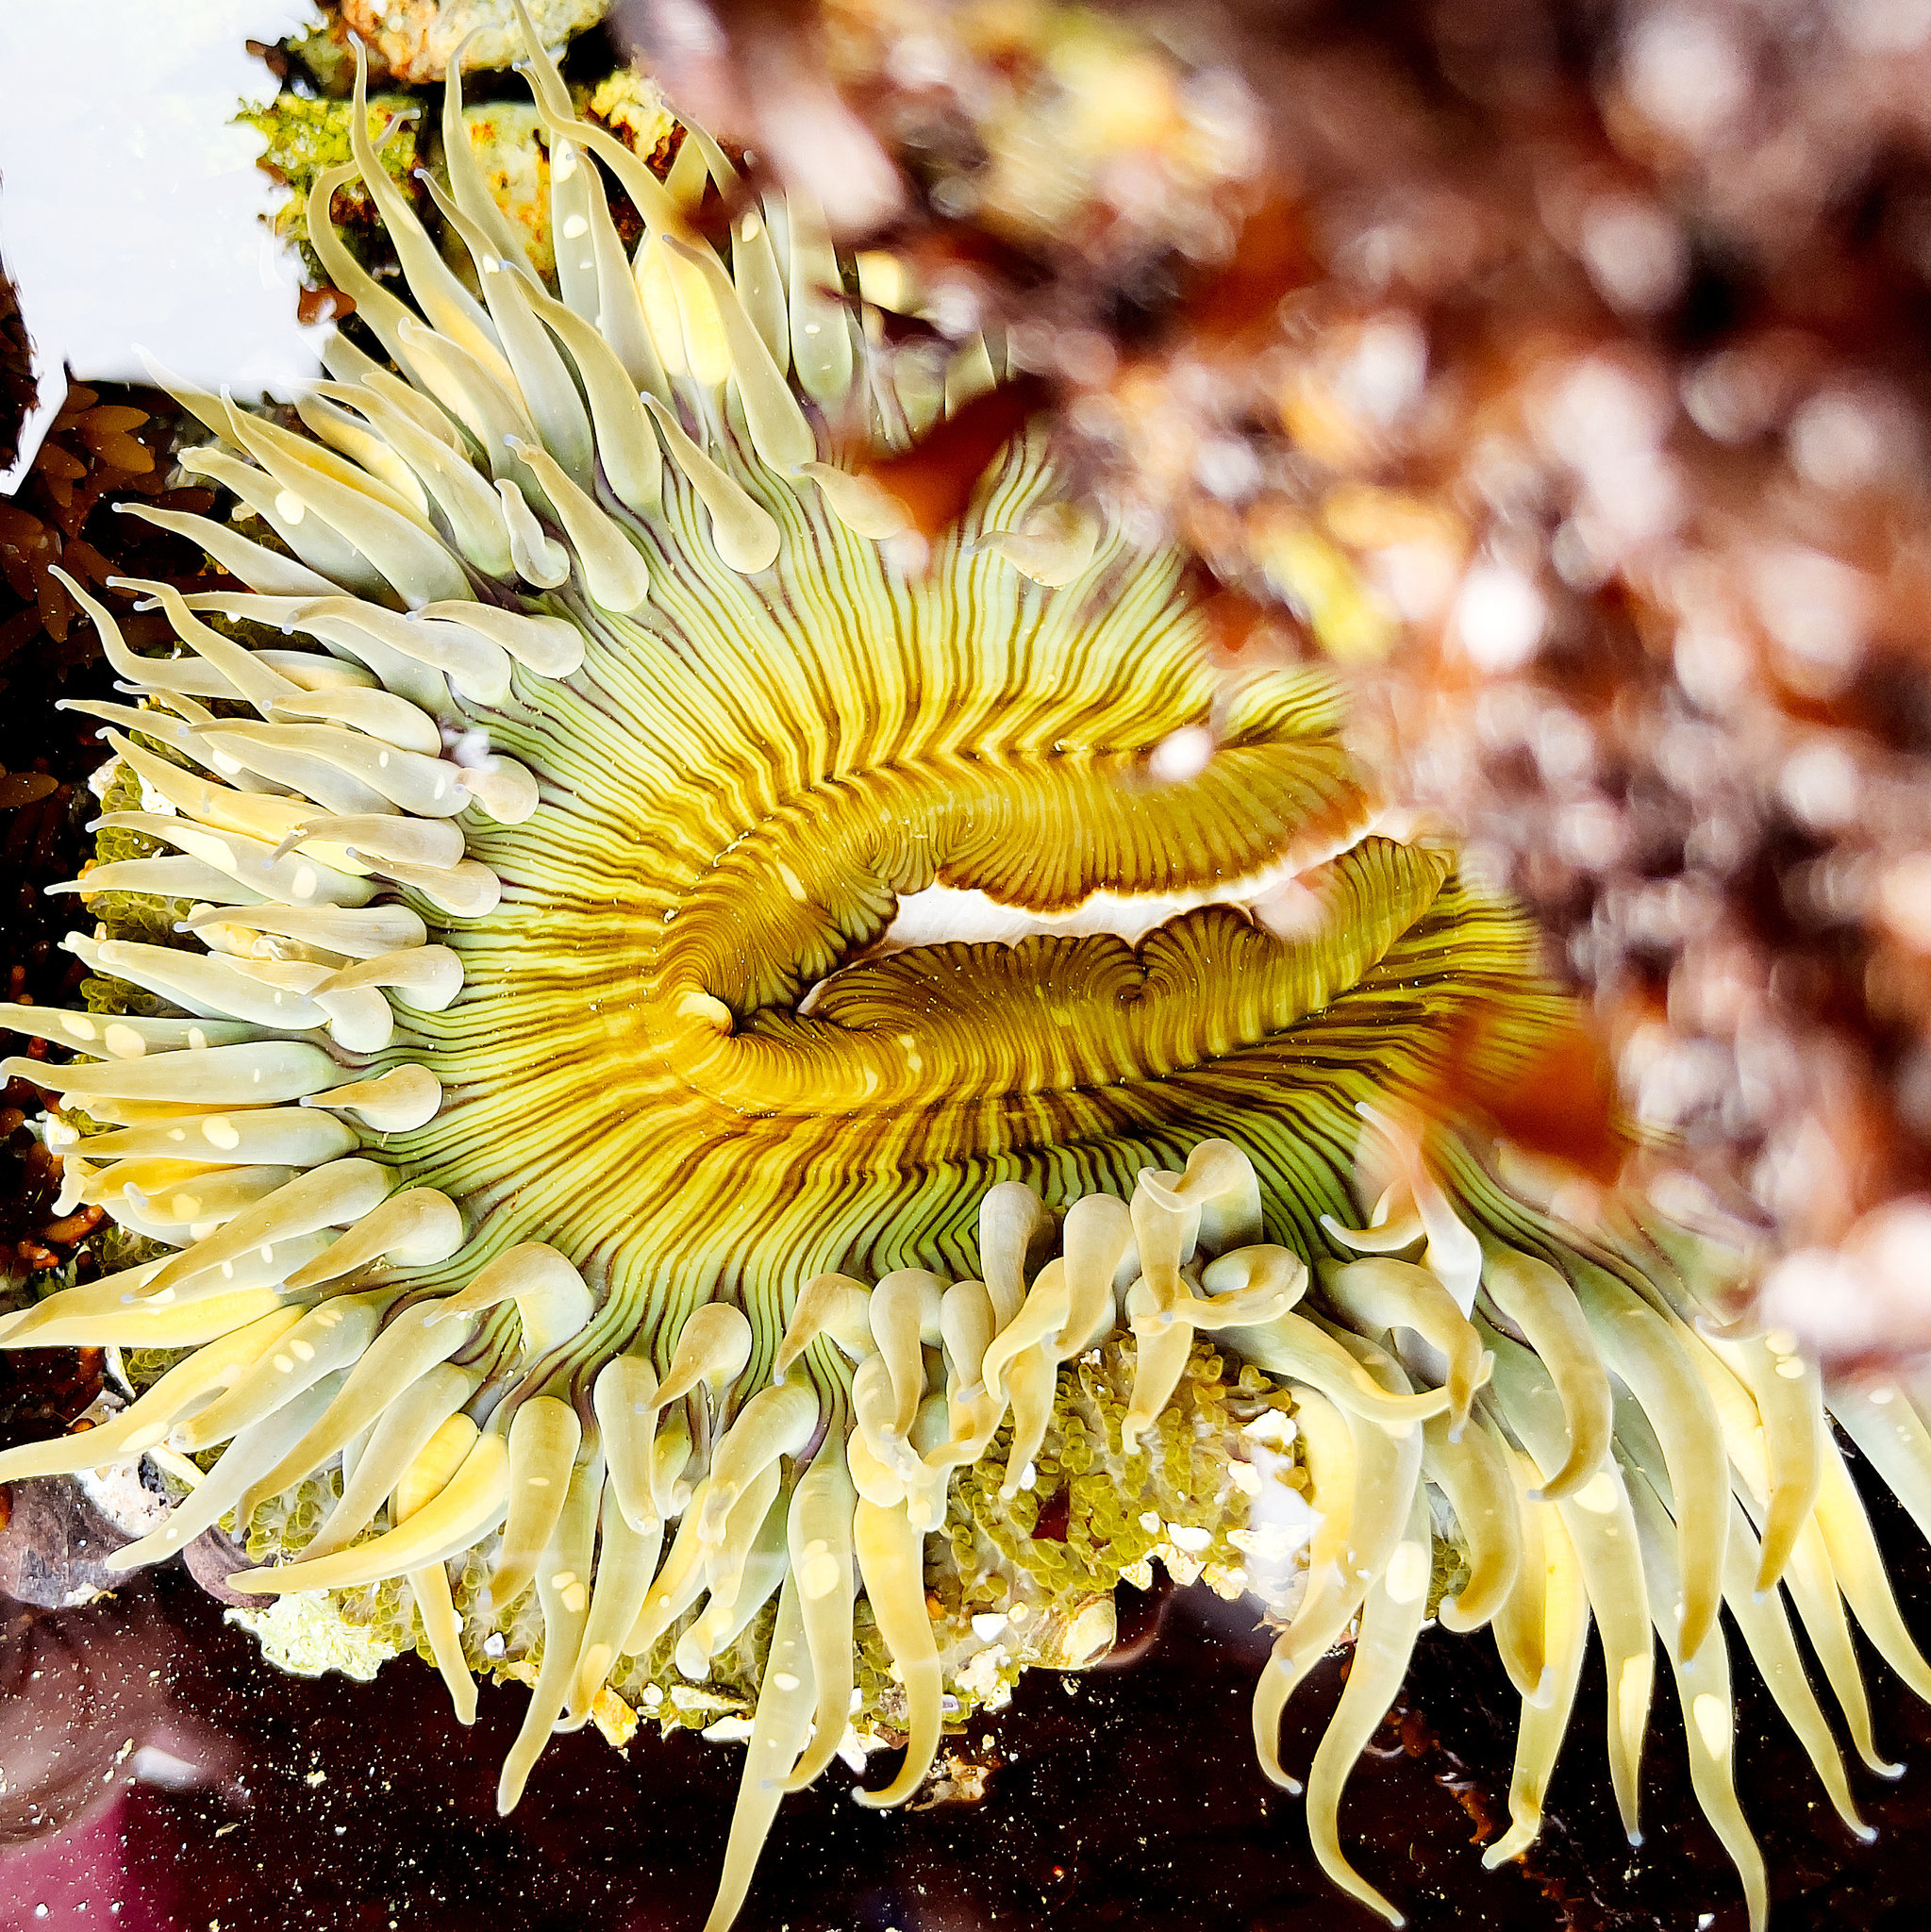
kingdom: Animalia
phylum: Cnidaria
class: Anthozoa
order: Actiniaria
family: Actiniidae
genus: Anthopleura
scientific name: Anthopleura sola
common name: Sun anemone
